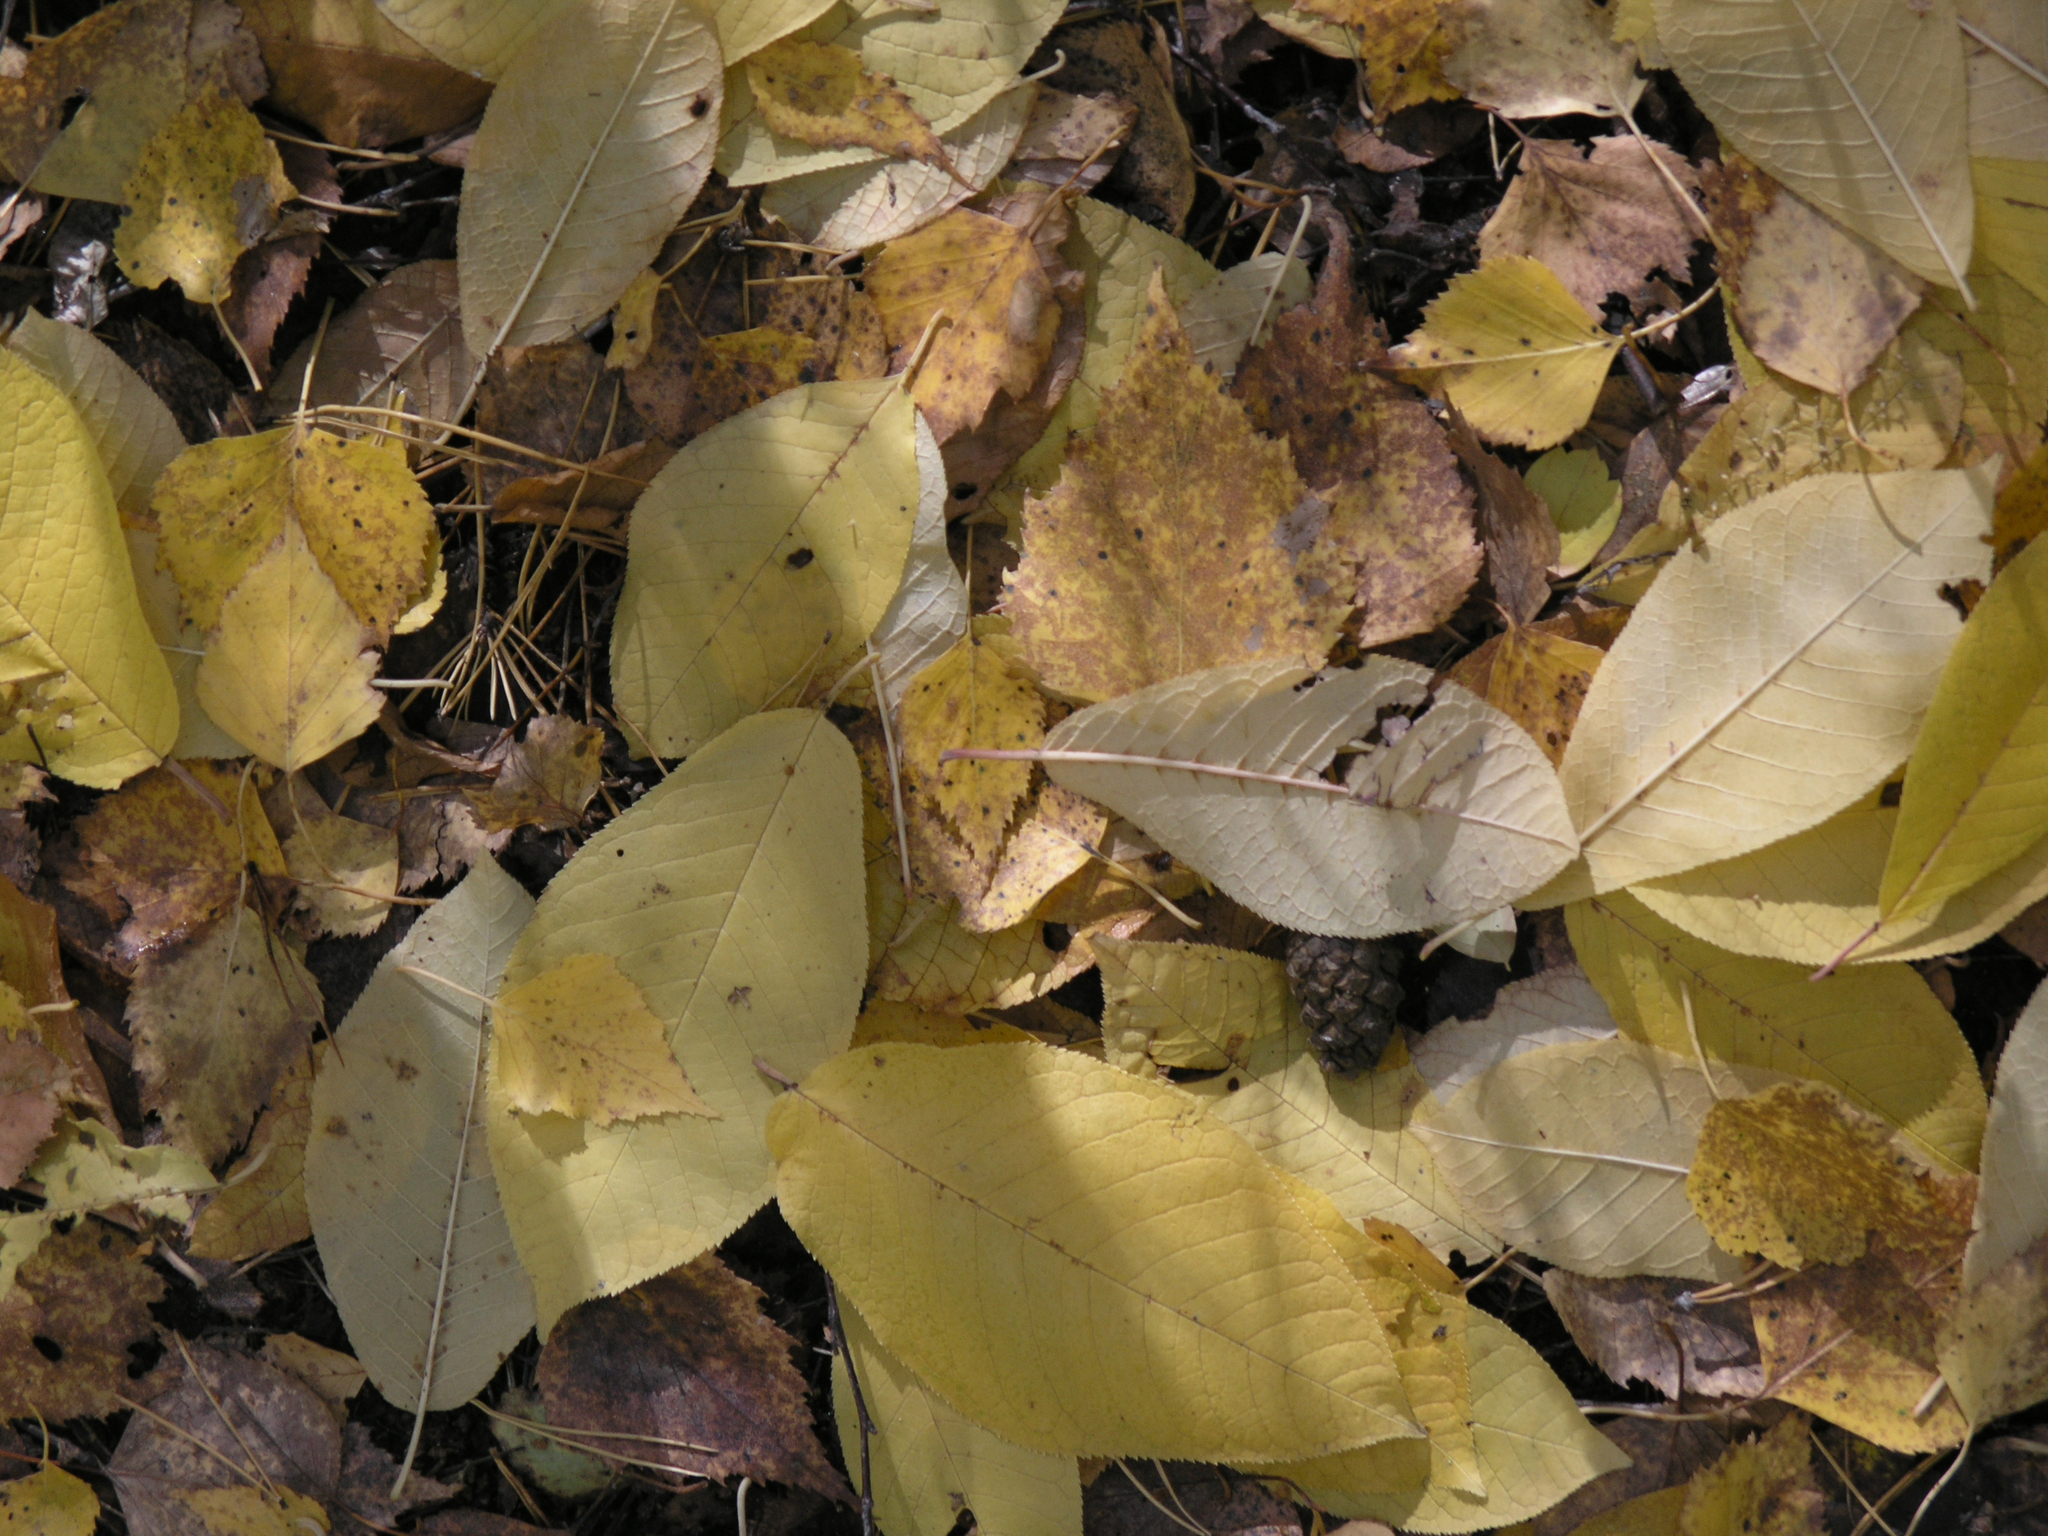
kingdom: Plantae
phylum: Tracheophyta
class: Magnoliopsida
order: Rosales
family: Rosaceae
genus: Prunus
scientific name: Prunus padus
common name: Bird cherry
